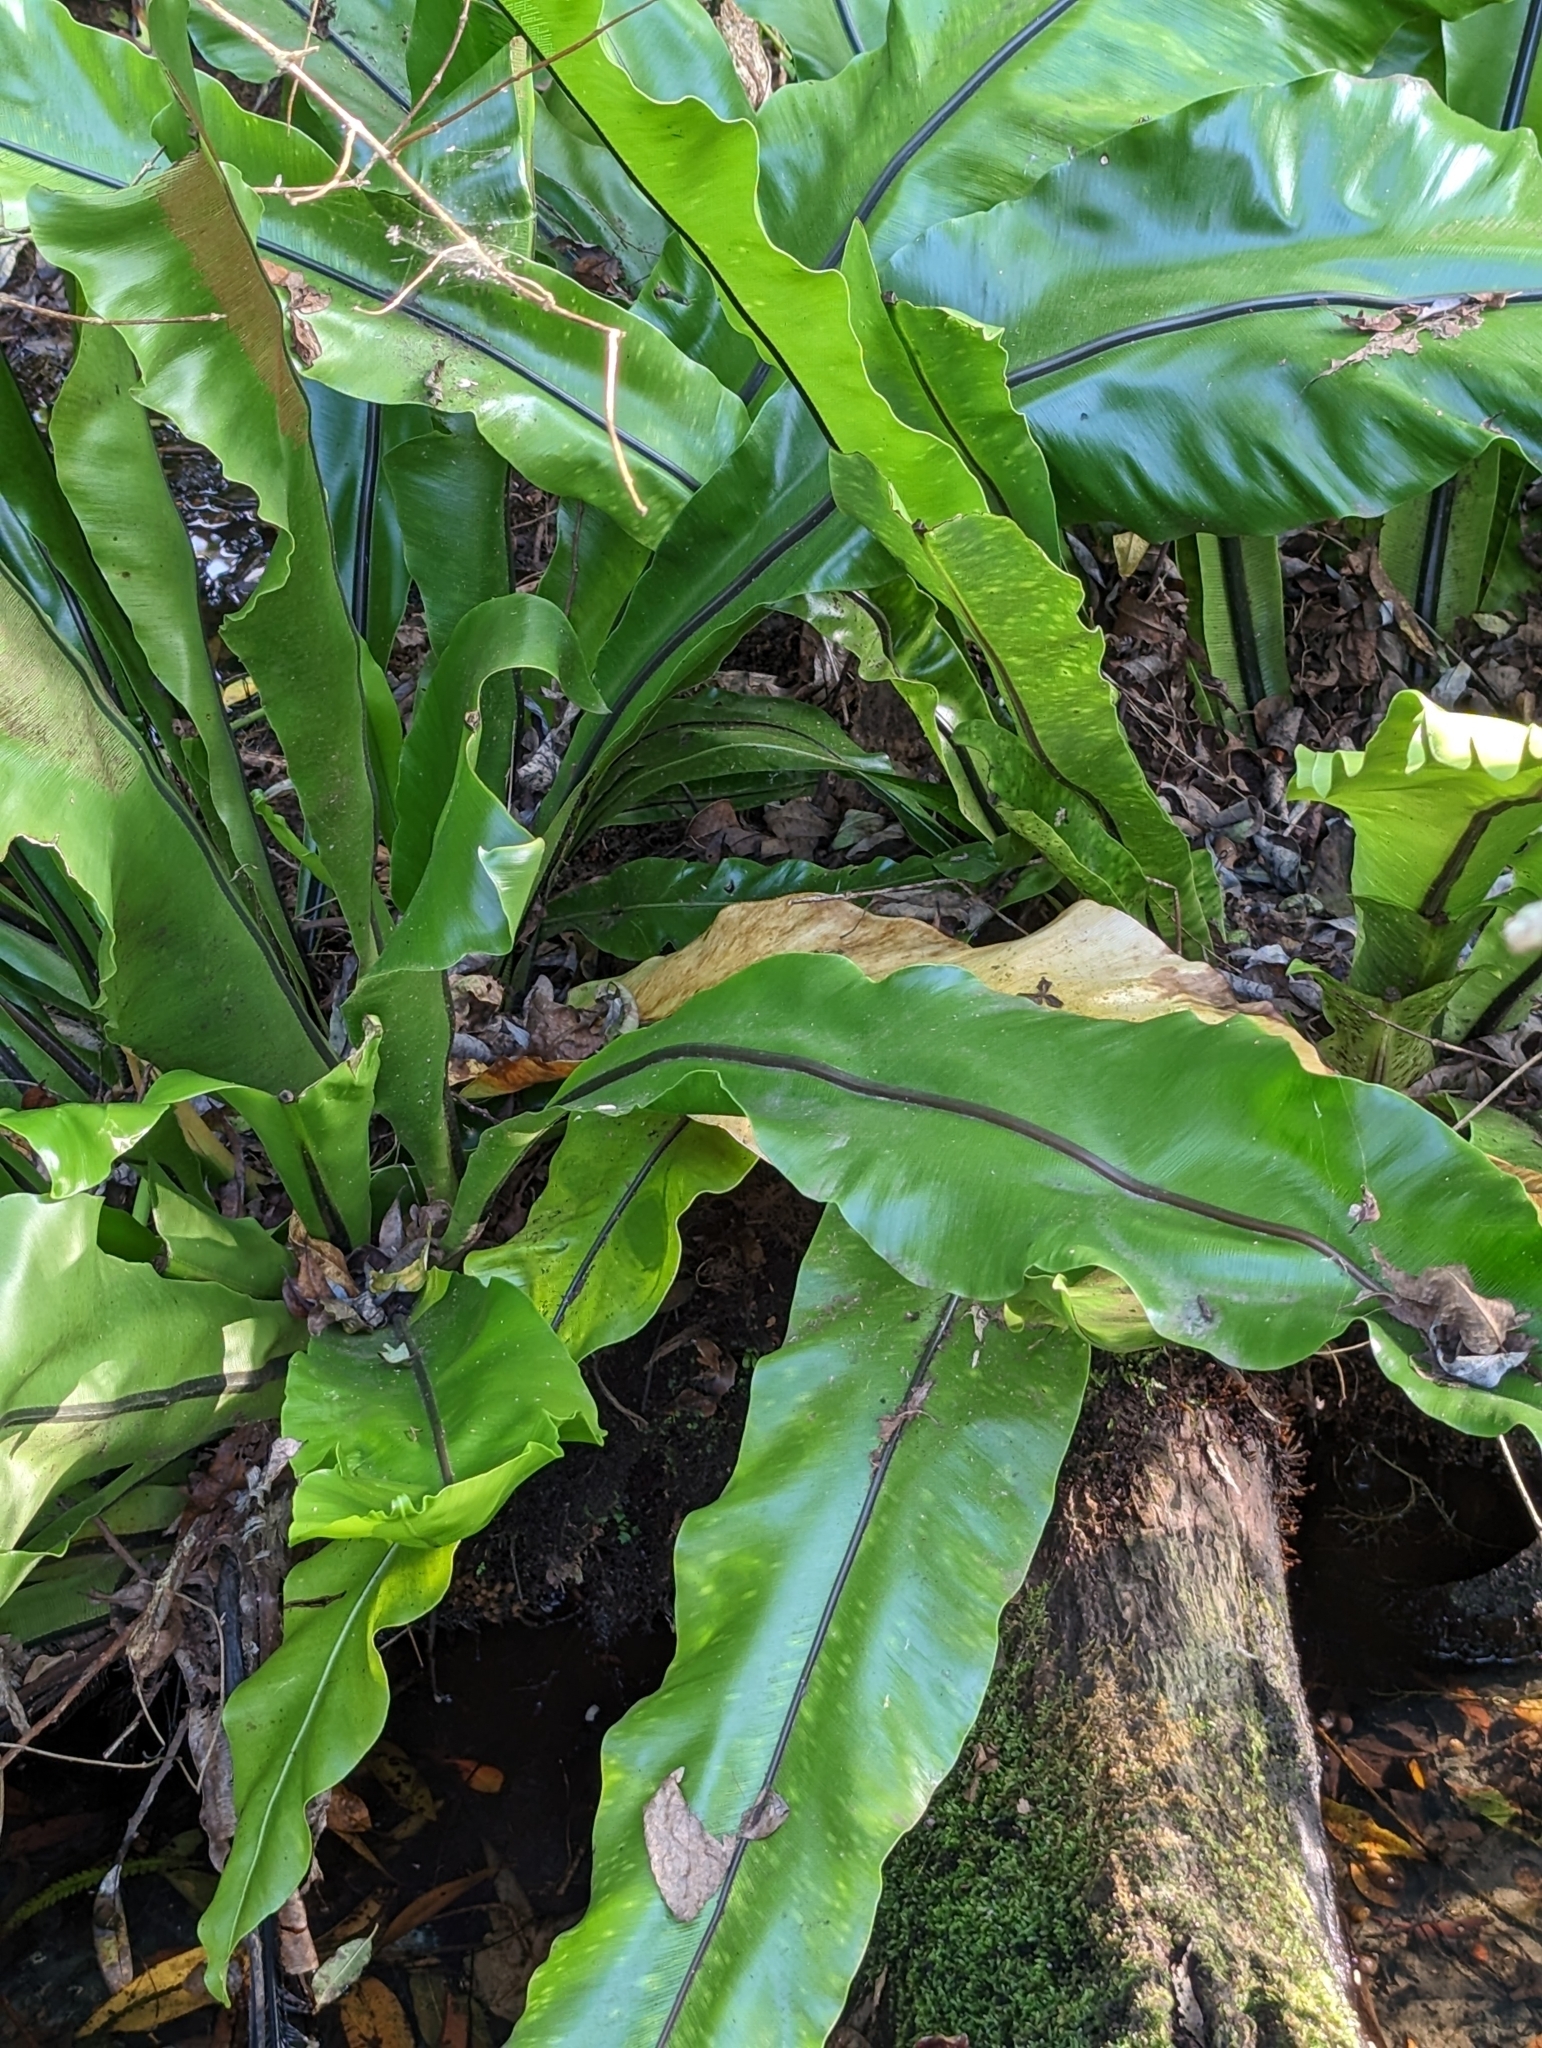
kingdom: Plantae
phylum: Tracheophyta
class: Polypodiopsida
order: Polypodiales
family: Aspleniaceae
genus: Asplenium
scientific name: Asplenium nidus
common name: Bird's-nest fern
